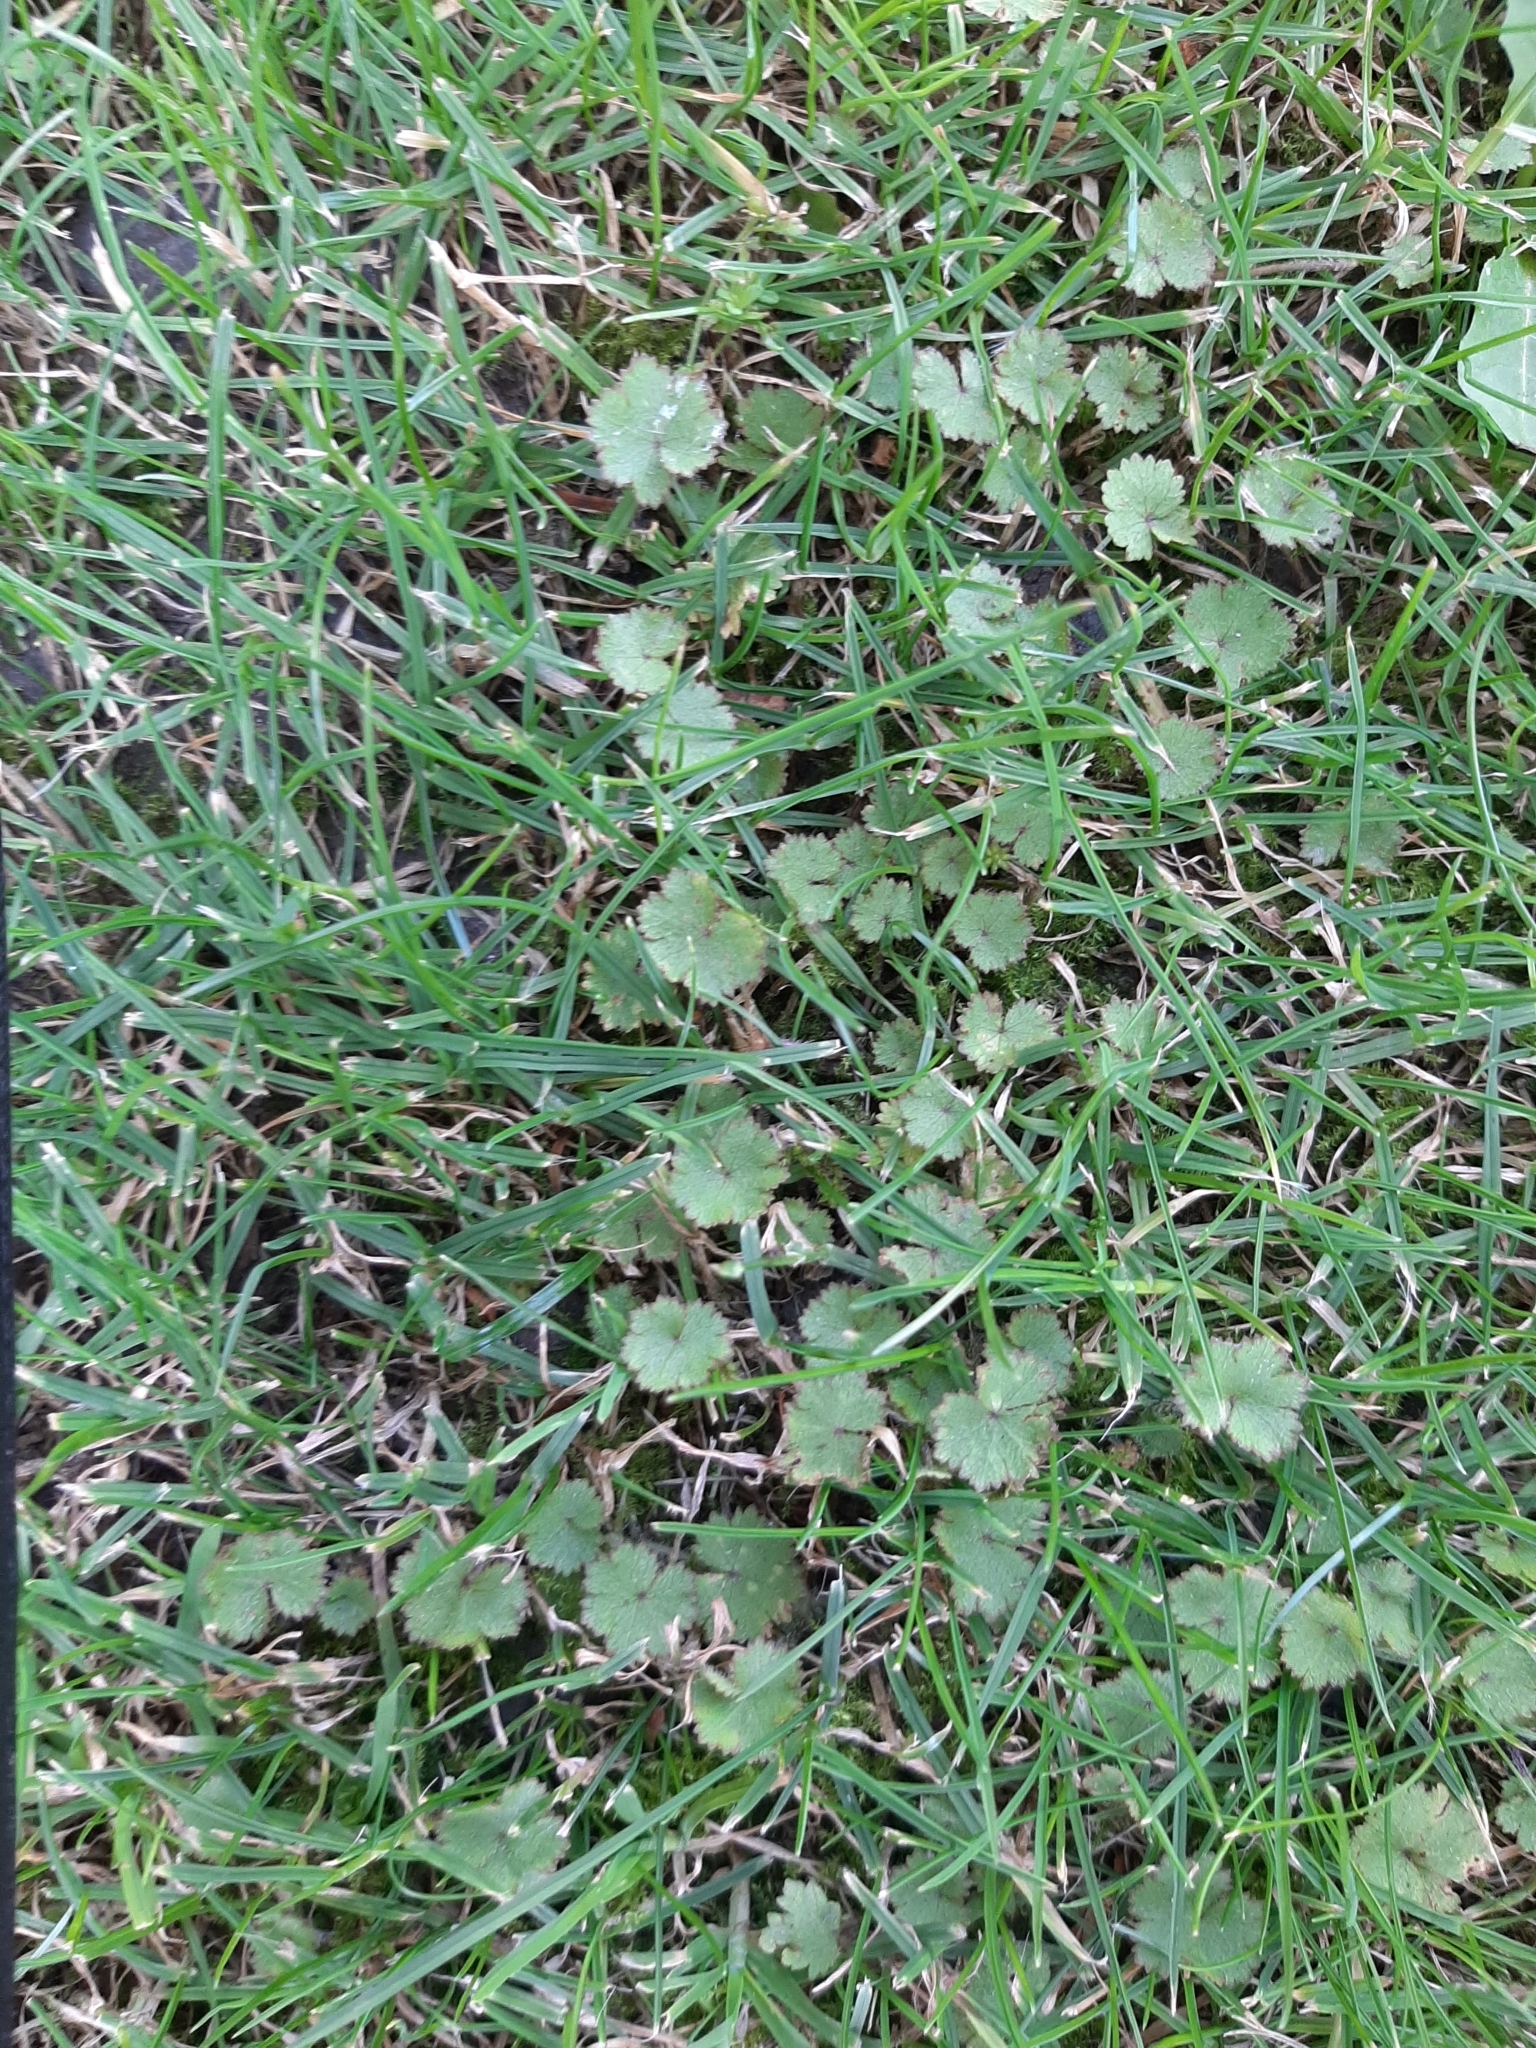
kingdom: Plantae
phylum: Tracheophyta
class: Magnoliopsida
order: Apiales
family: Araliaceae
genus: Hydrocotyle
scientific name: Hydrocotyle moschata
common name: Hairy pennywort
